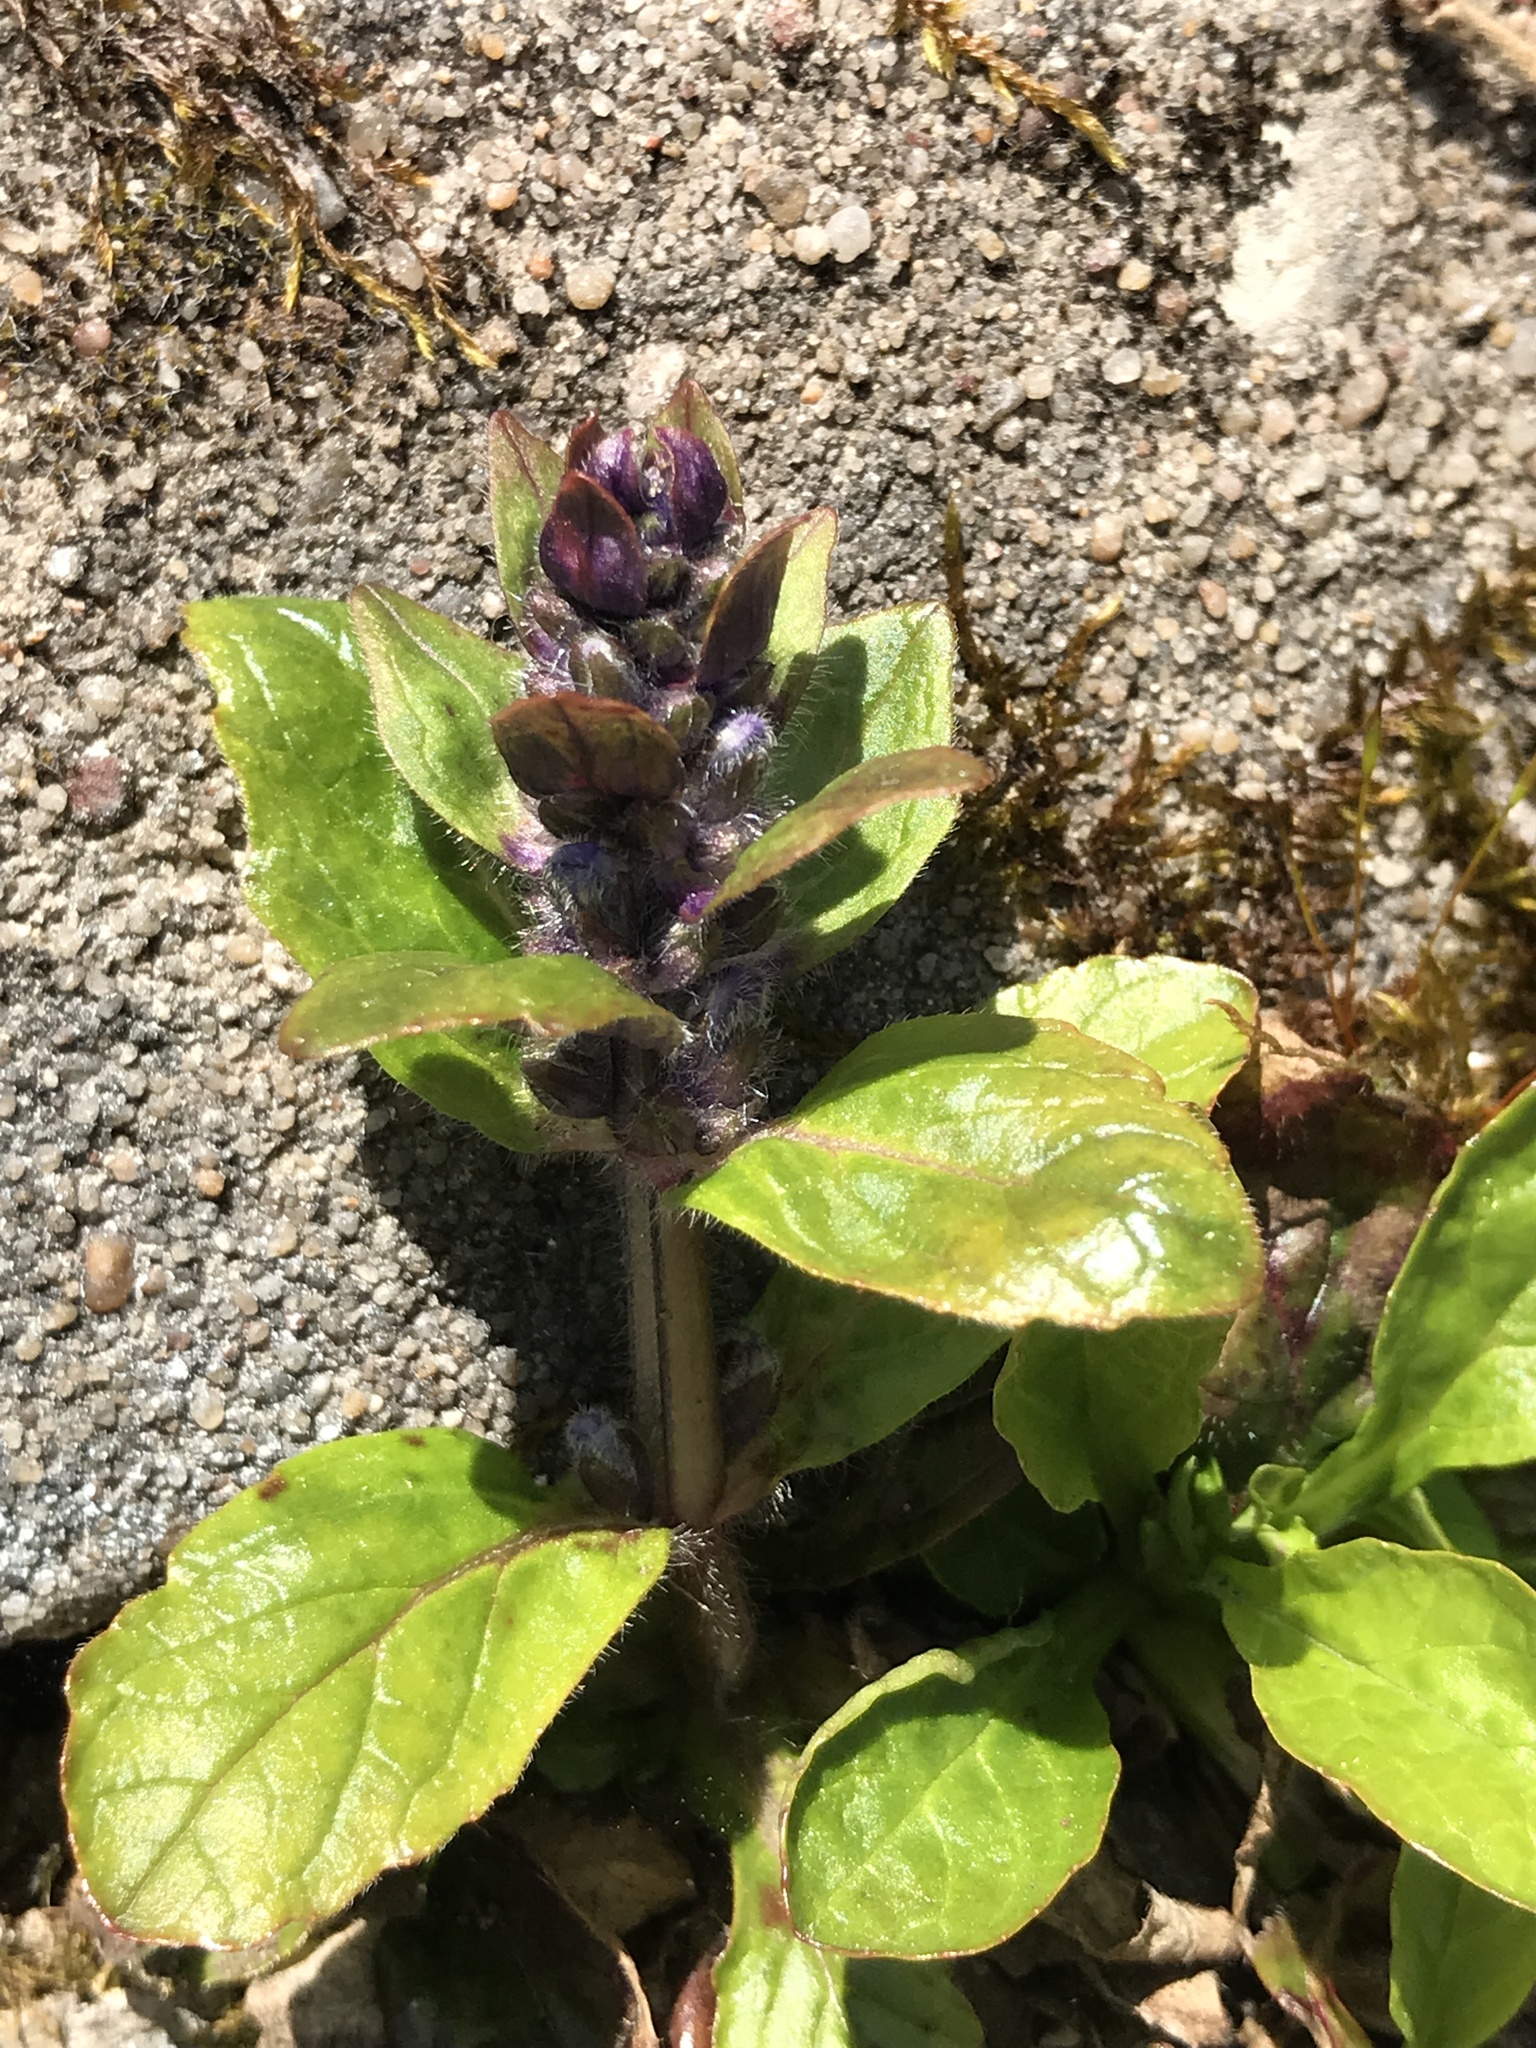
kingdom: Plantae
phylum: Tracheophyta
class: Magnoliopsida
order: Lamiales
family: Lamiaceae
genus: Ajuga
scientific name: Ajuga reptans
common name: Bugle
